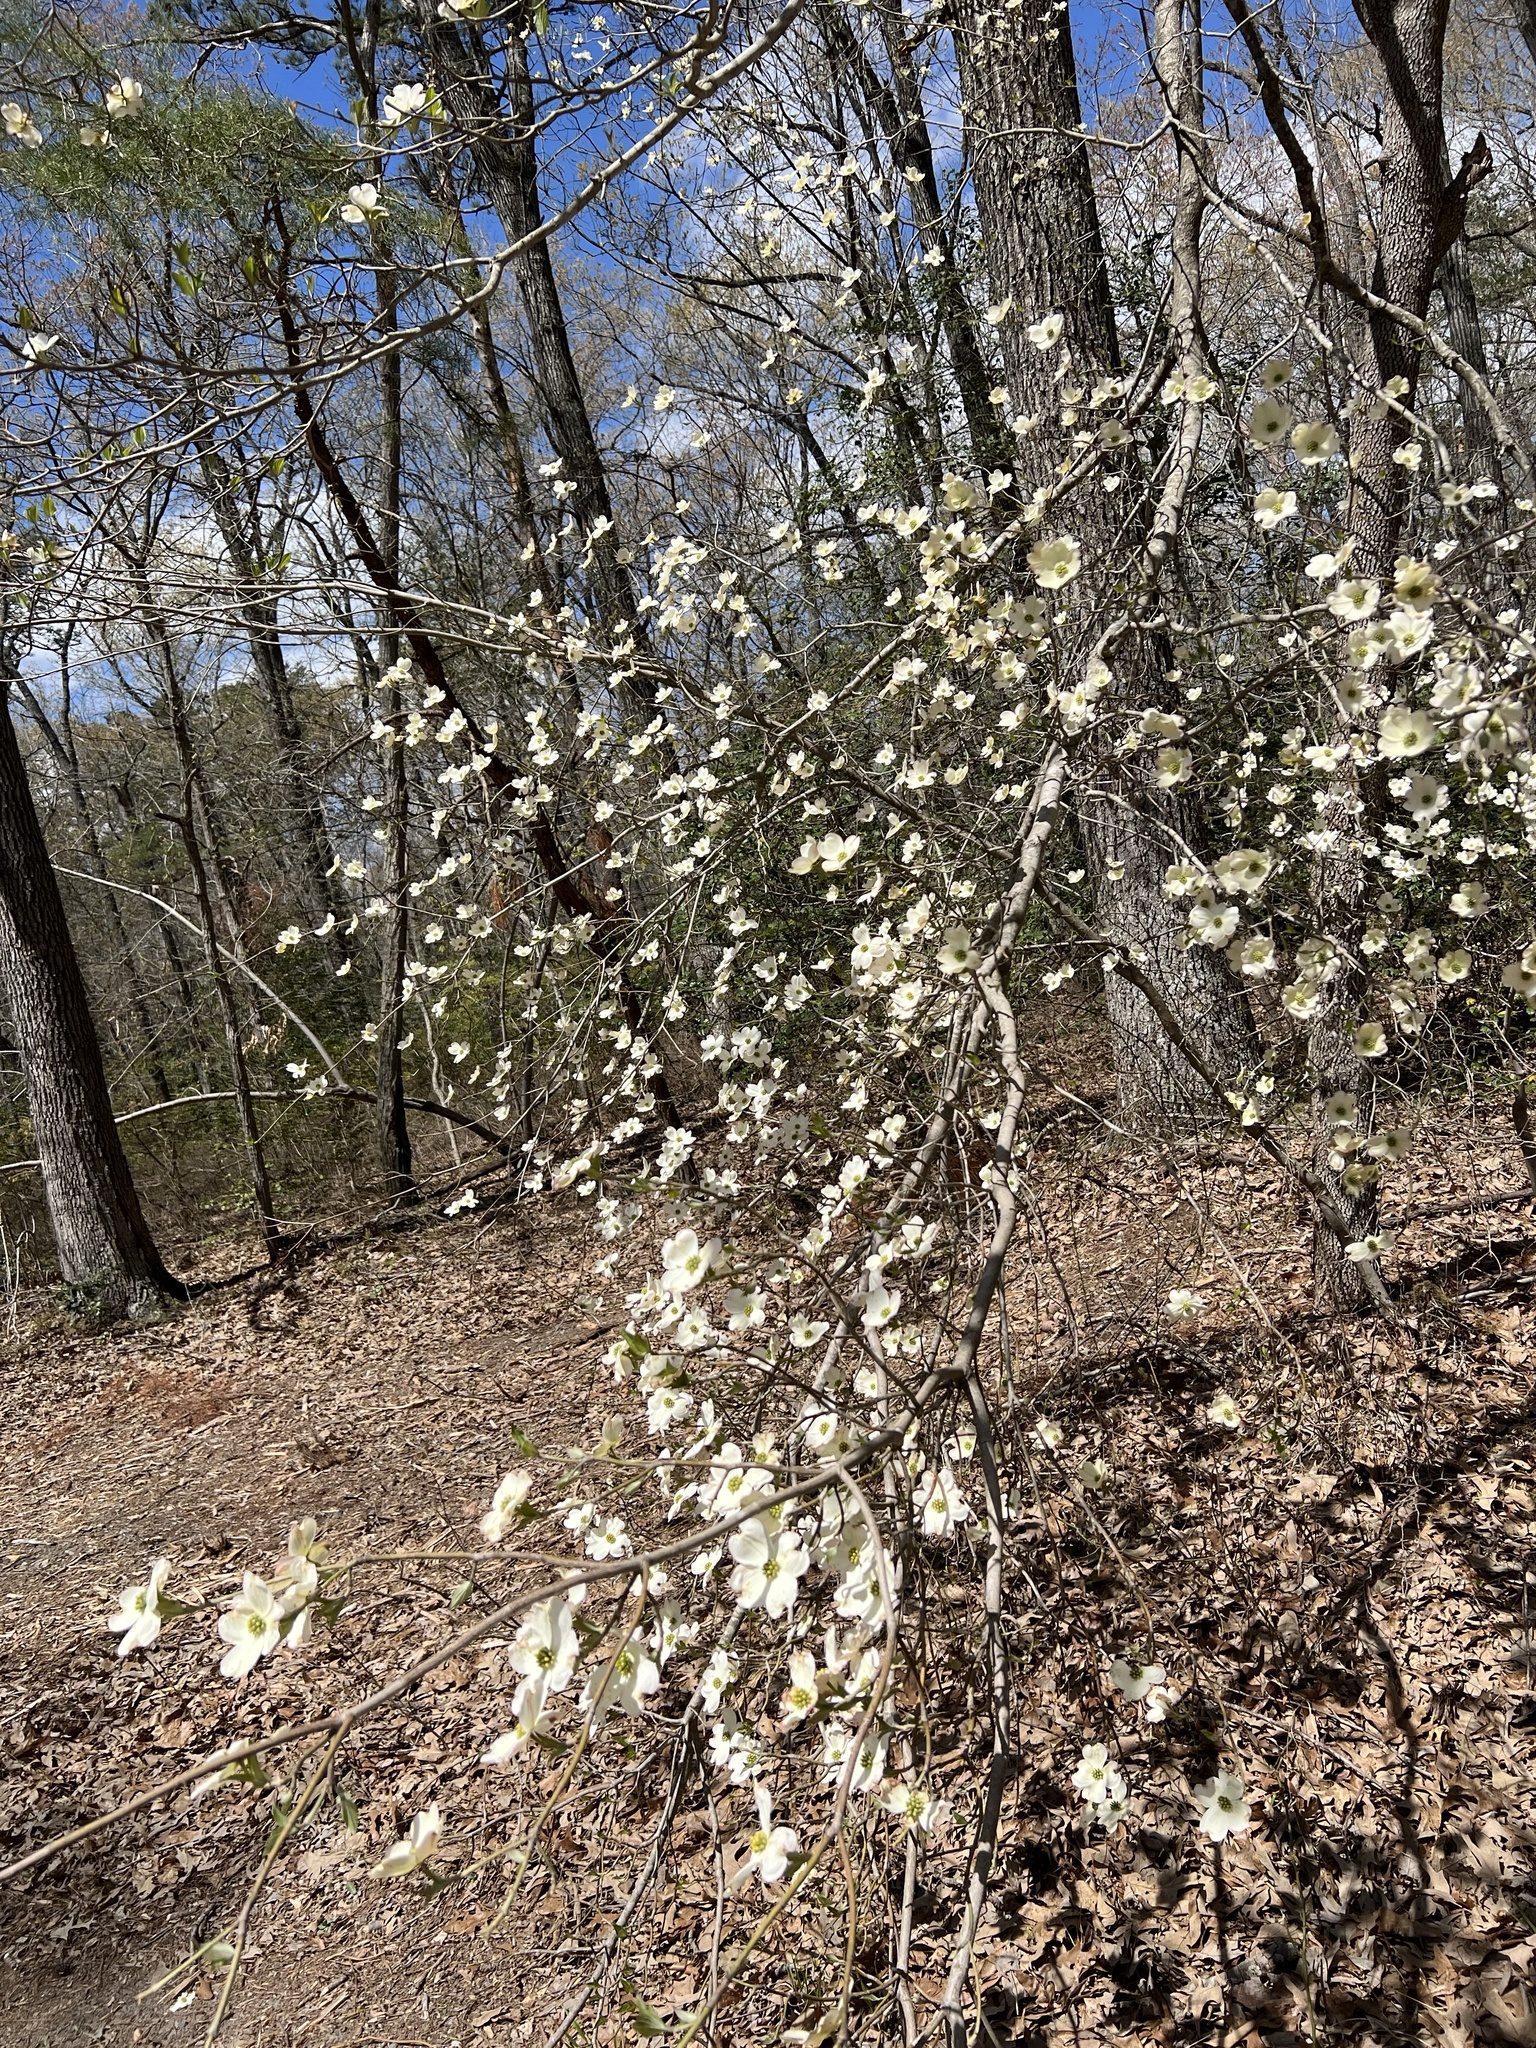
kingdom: Plantae
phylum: Tracheophyta
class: Magnoliopsida
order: Cornales
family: Cornaceae
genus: Cornus
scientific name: Cornus florida
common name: Flowering dogwood
